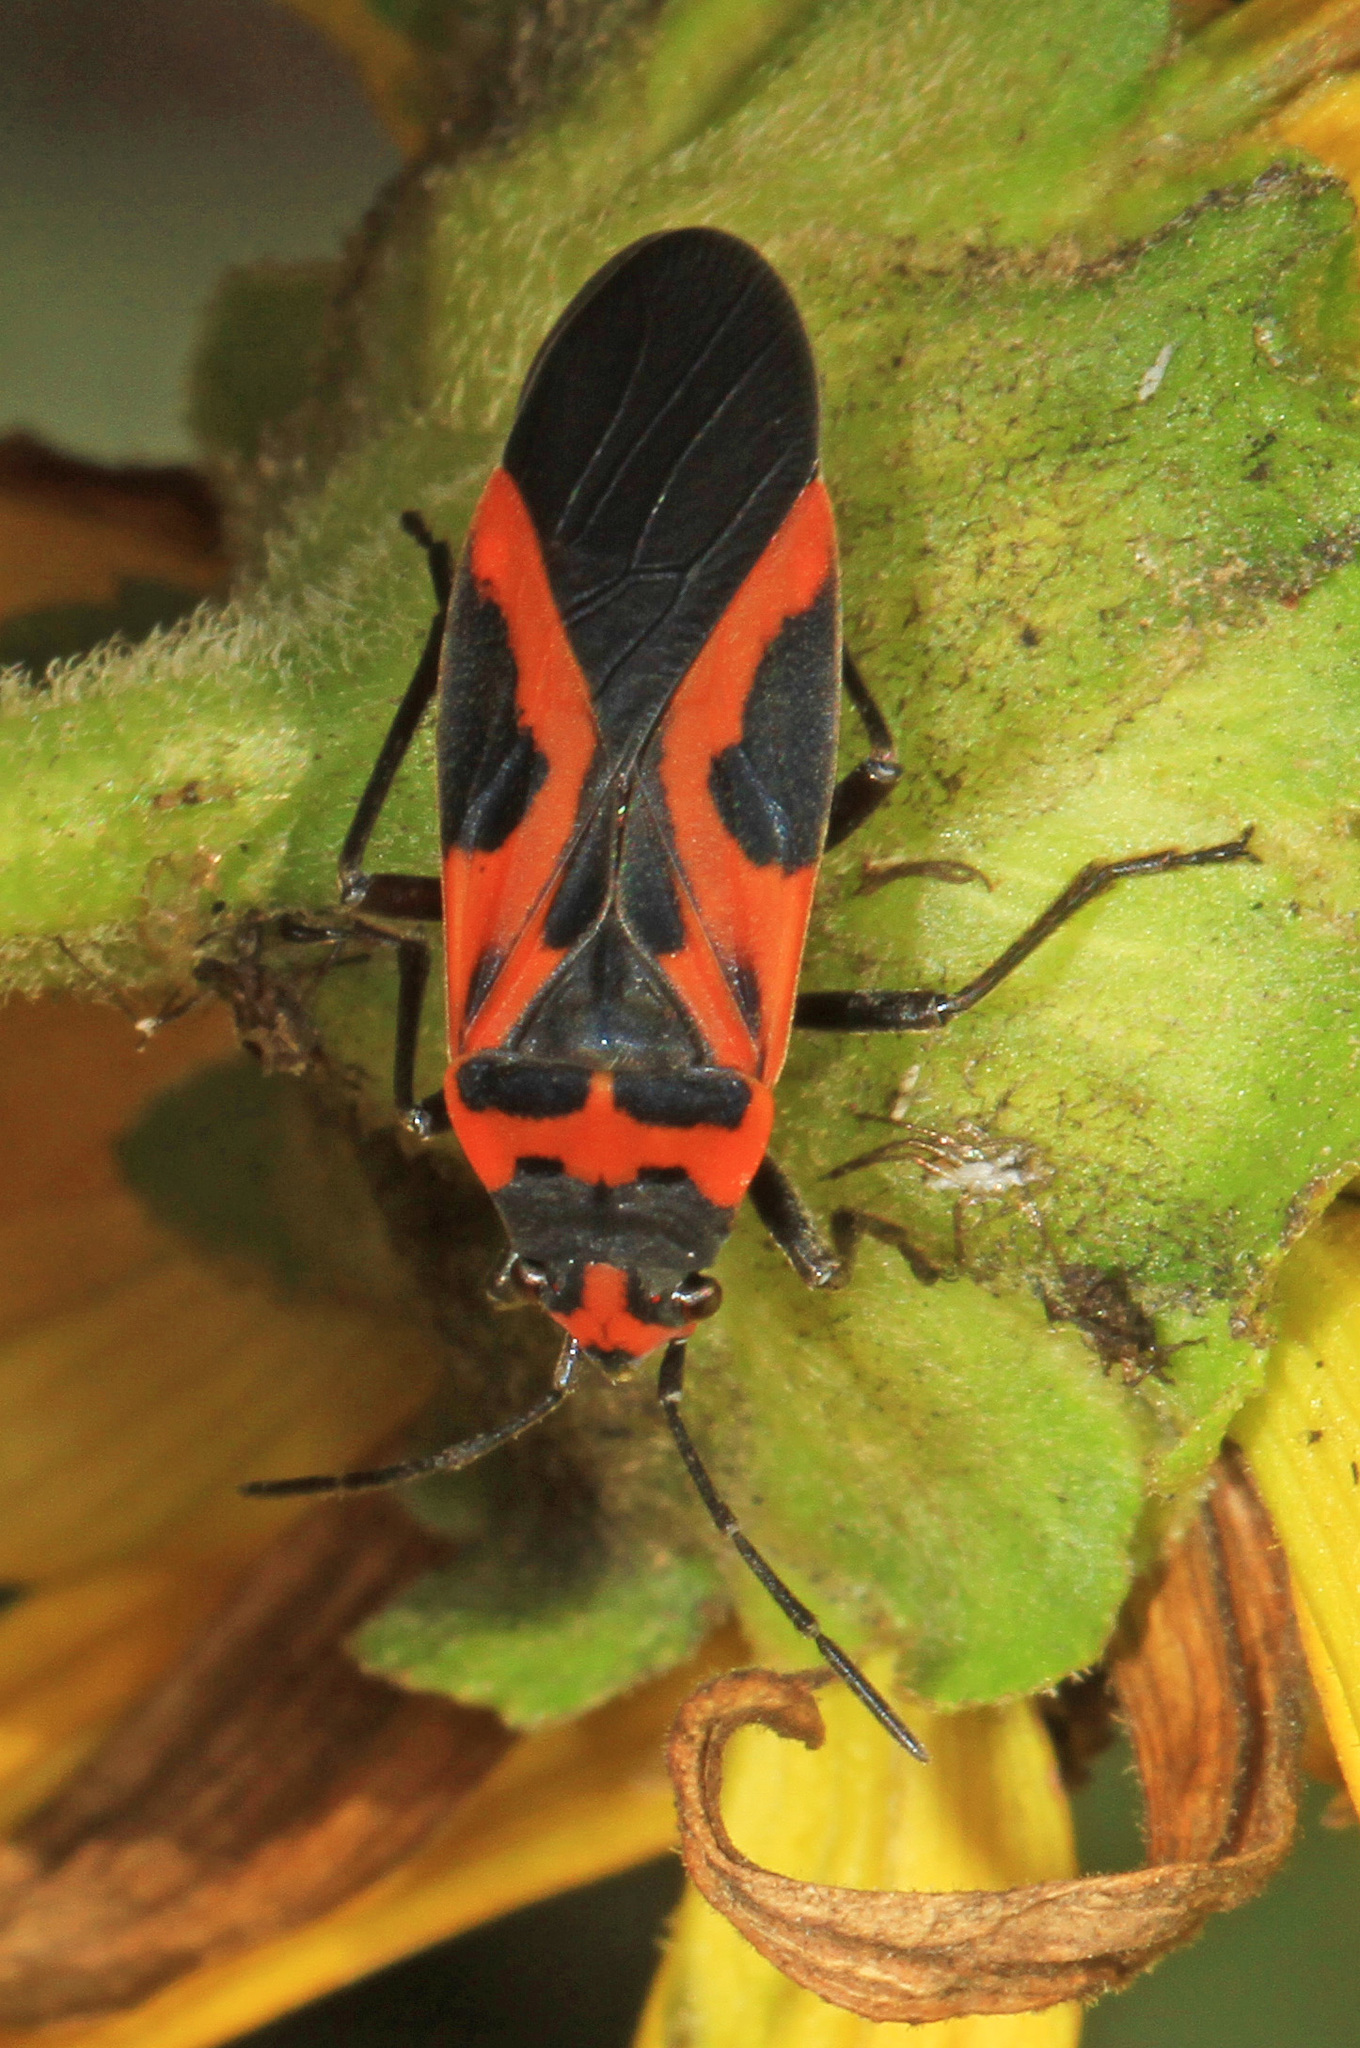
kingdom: Animalia
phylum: Arthropoda
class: Insecta
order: Hemiptera
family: Lygaeidae
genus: Lygaeus
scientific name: Lygaeus turcicus
